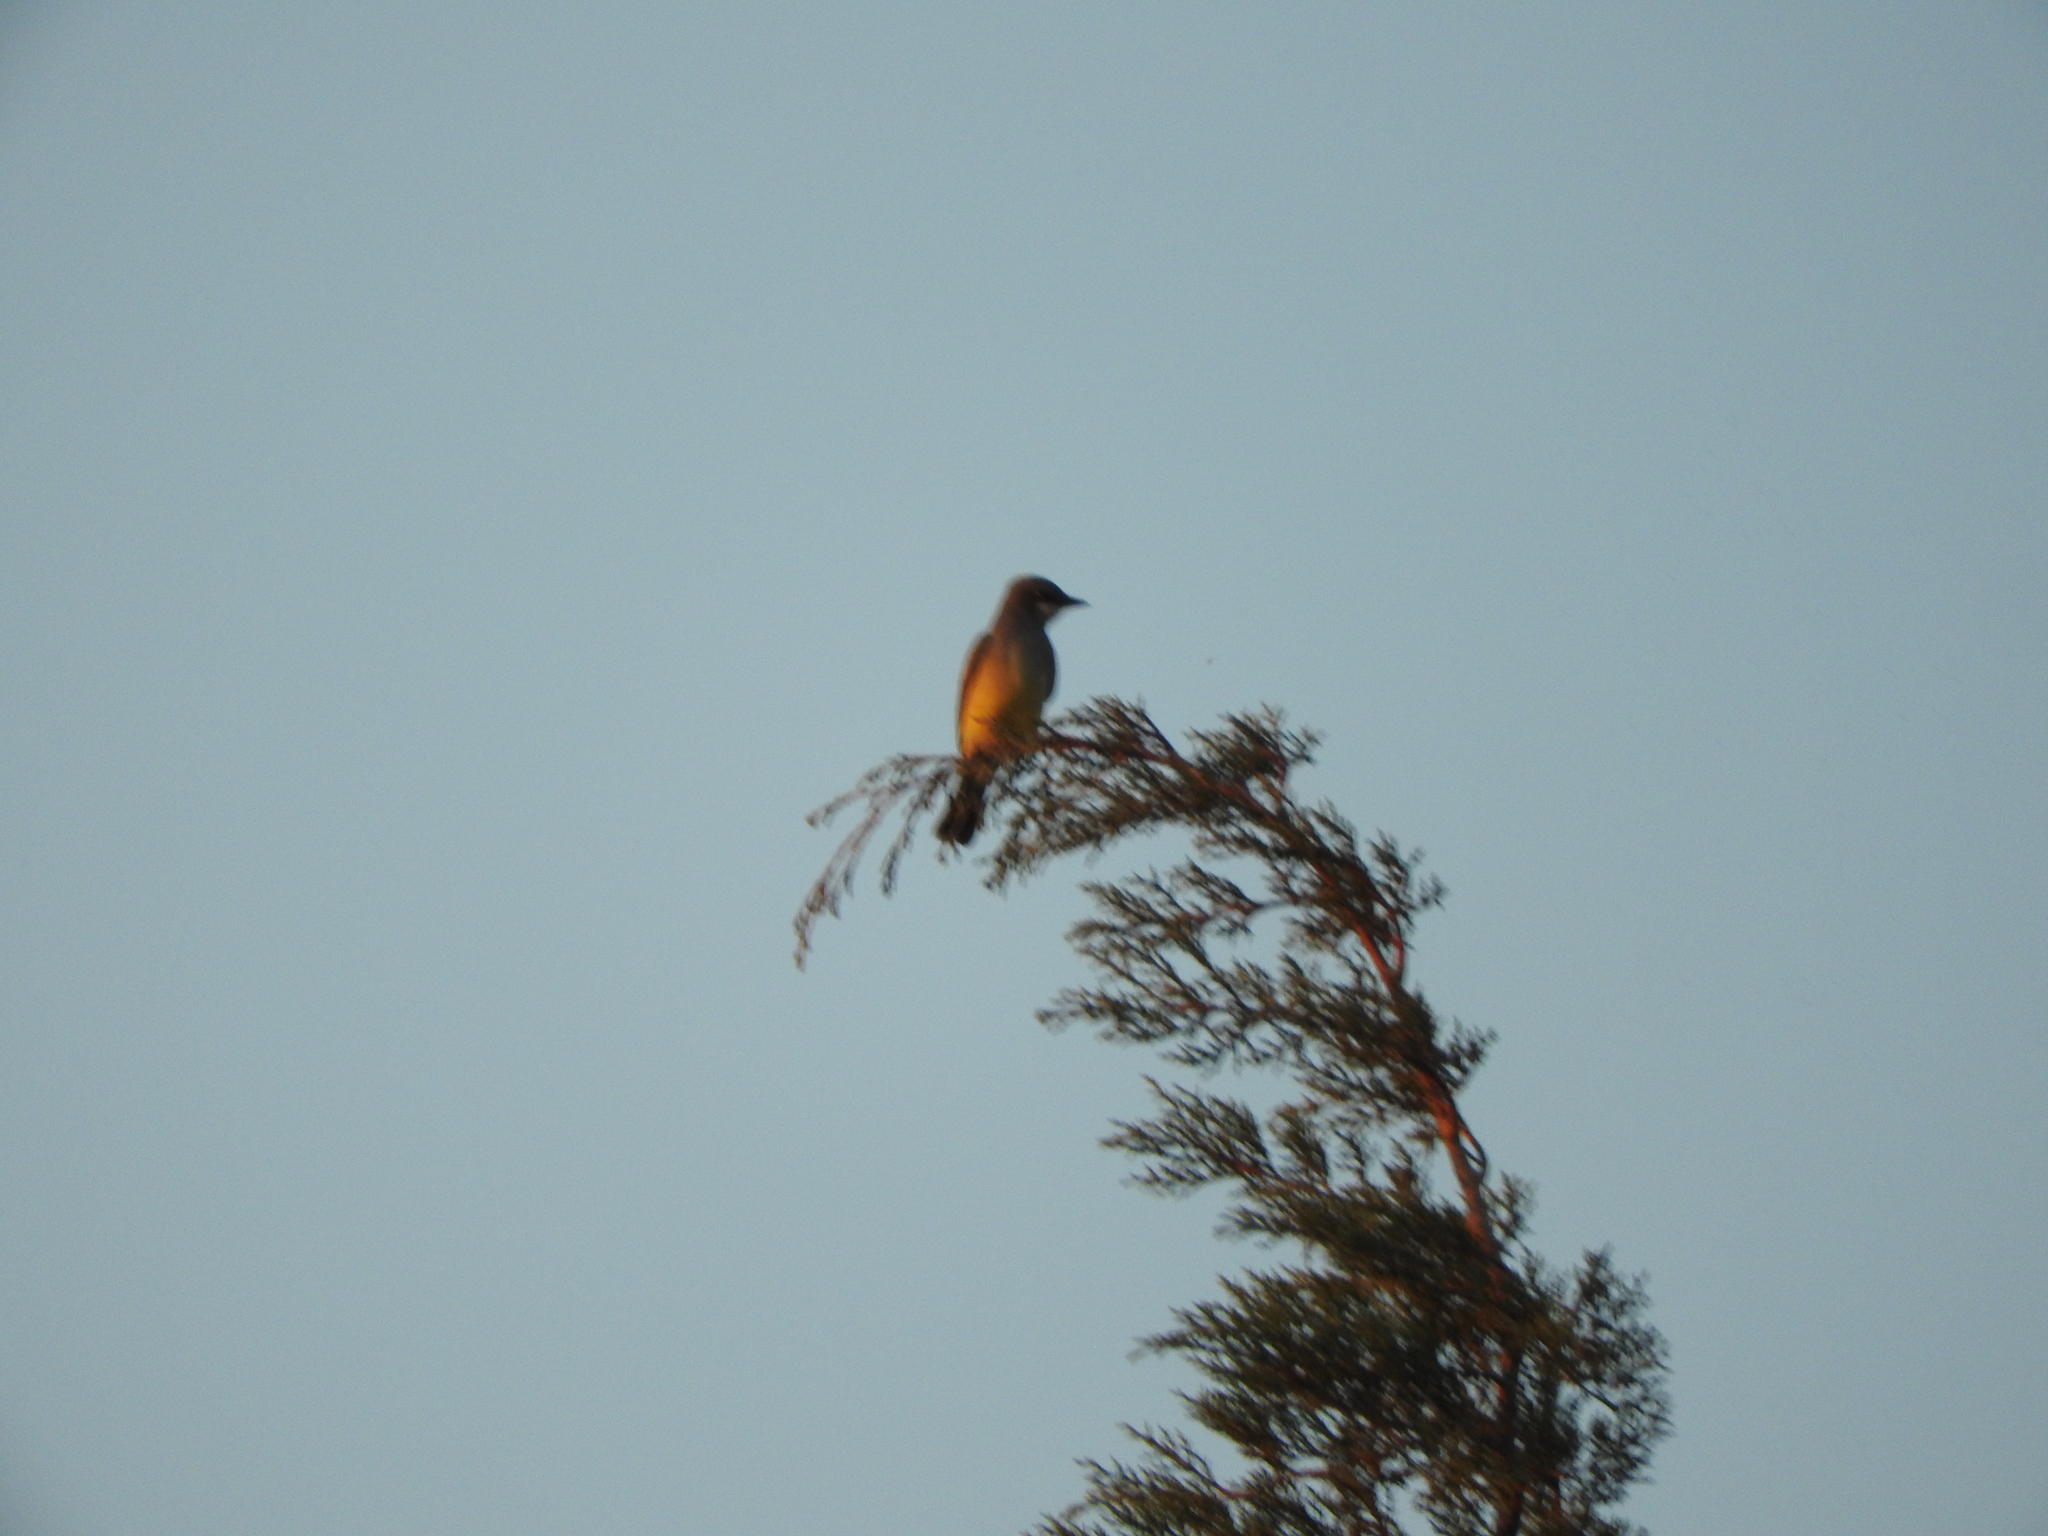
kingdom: Animalia
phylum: Chordata
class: Aves
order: Passeriformes
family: Tyrannidae
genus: Tyrannus
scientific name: Tyrannus vociferans
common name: Cassin's kingbird
